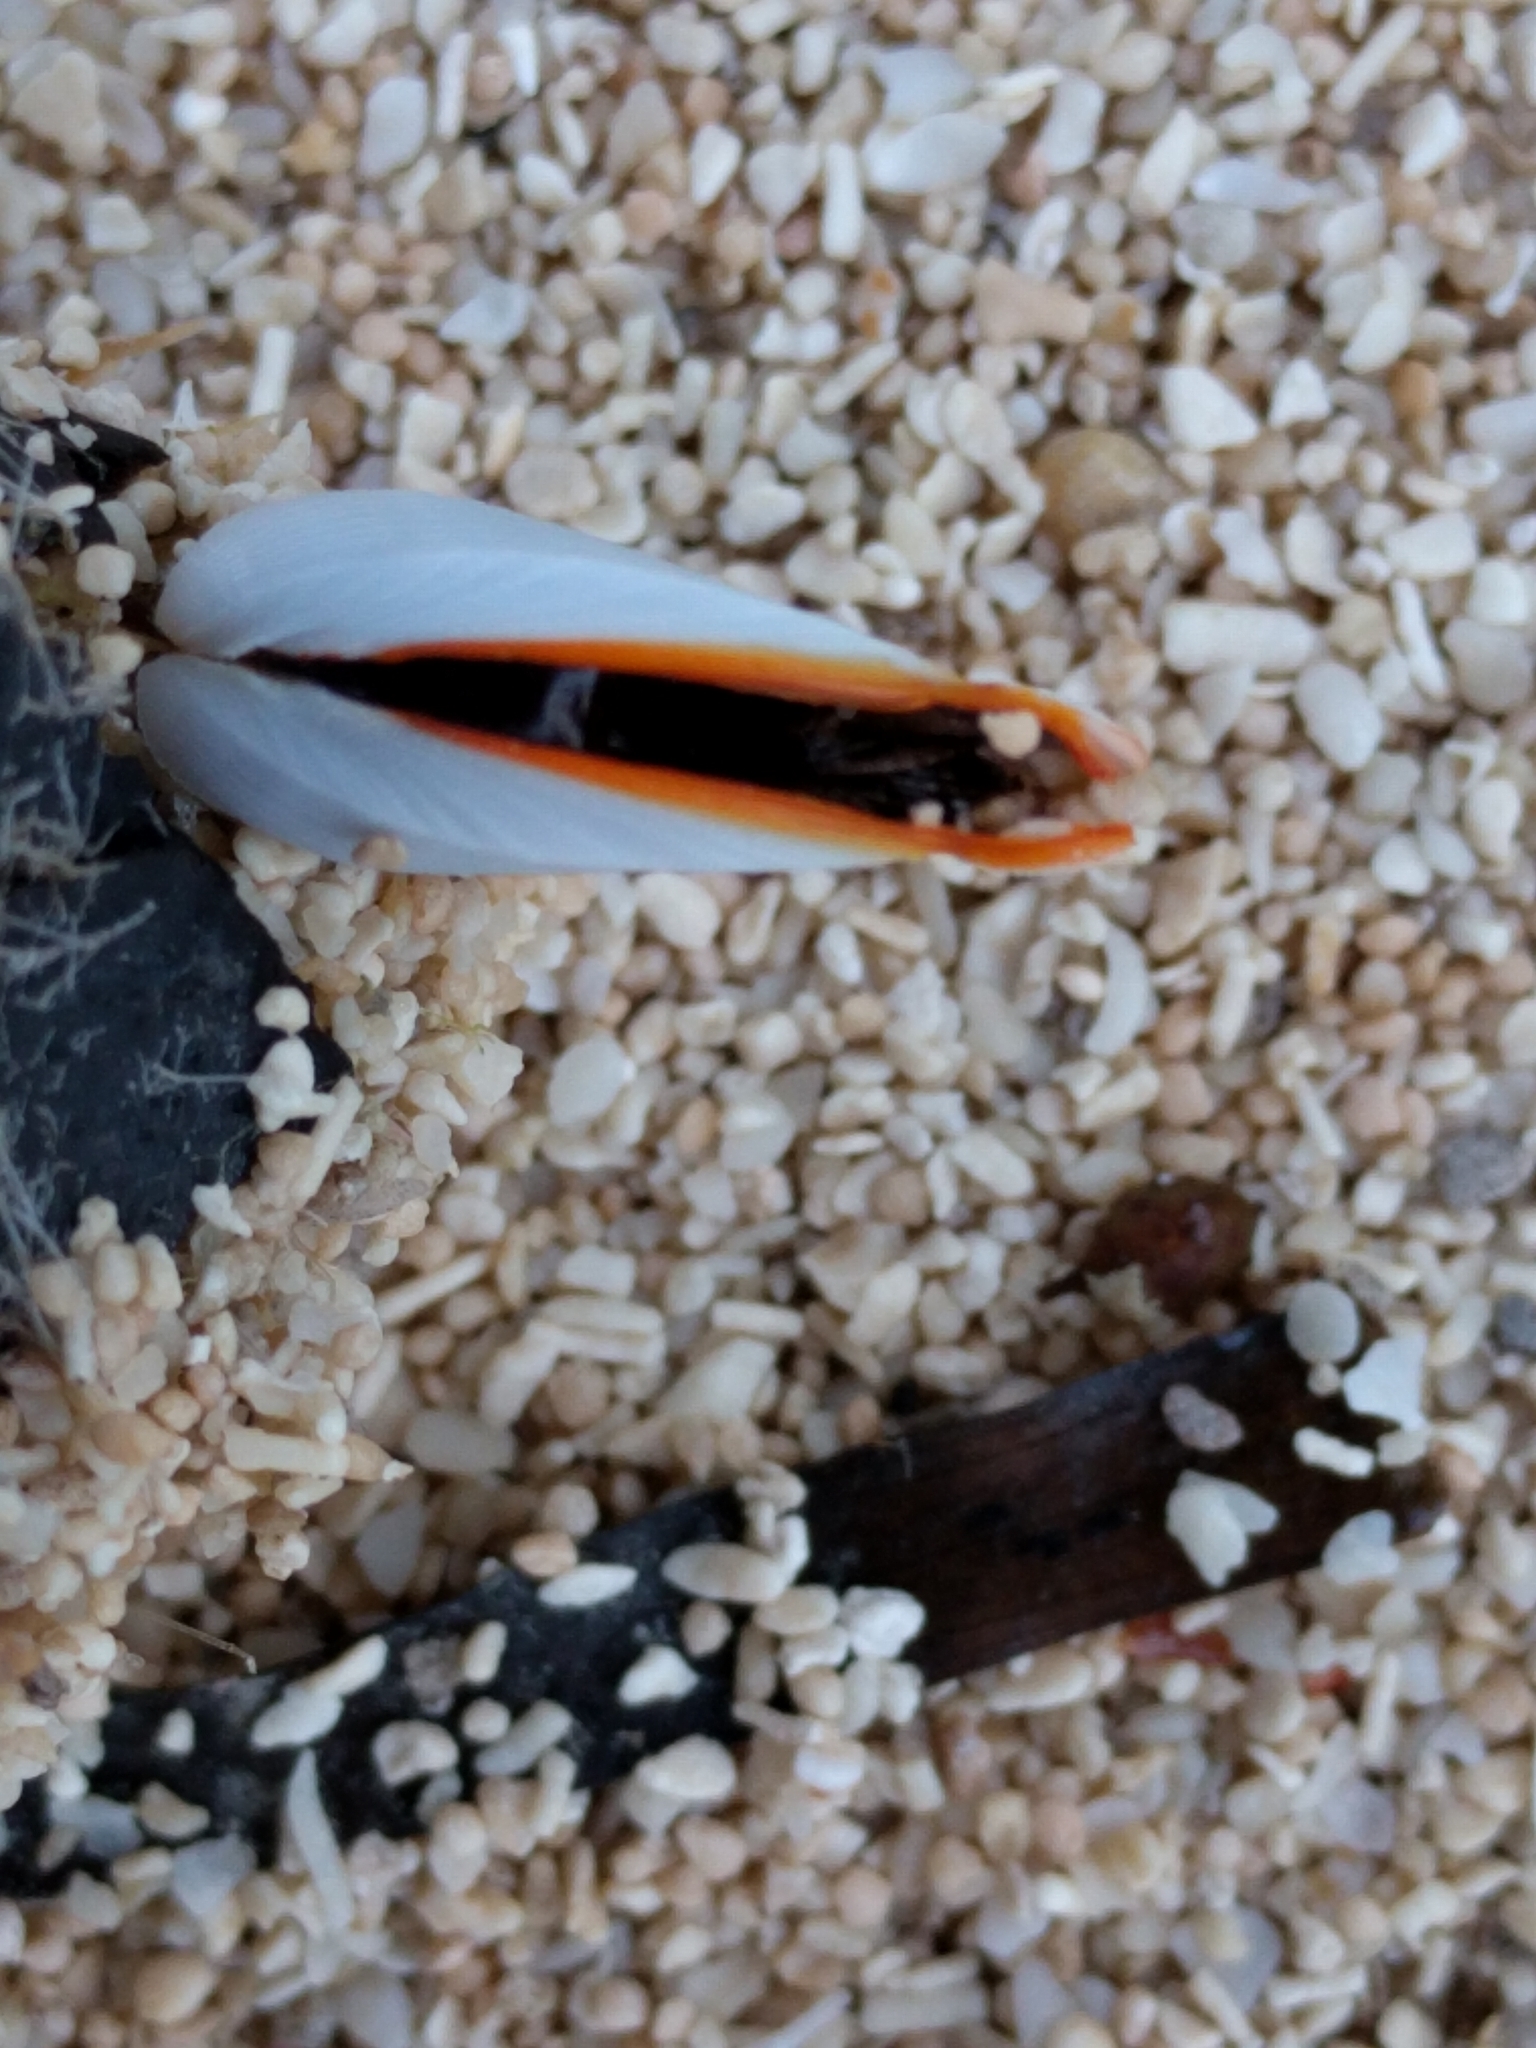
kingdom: Animalia
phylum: Arthropoda
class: Maxillopoda
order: Pedunculata
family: Lepadidae
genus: Lepas
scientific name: Lepas anserifera
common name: Goose barnacle
